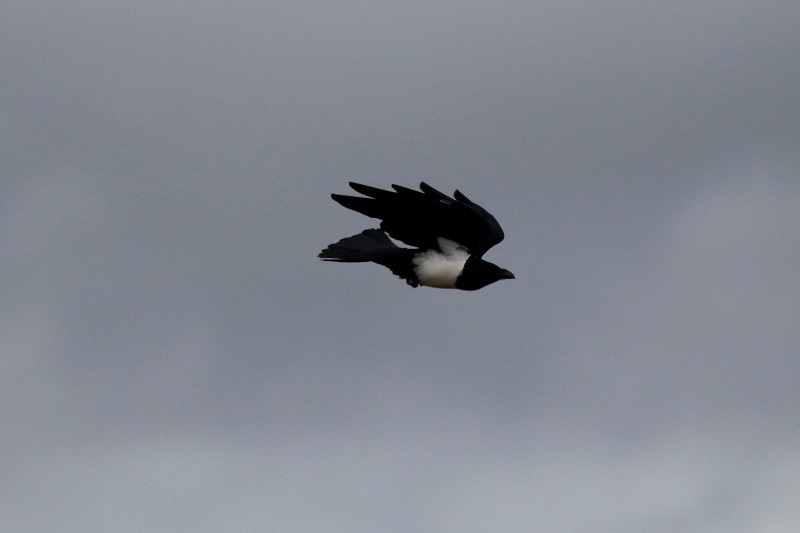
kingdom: Animalia
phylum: Chordata
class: Aves
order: Passeriformes
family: Corvidae
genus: Corvus
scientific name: Corvus albus
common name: Pied crow
